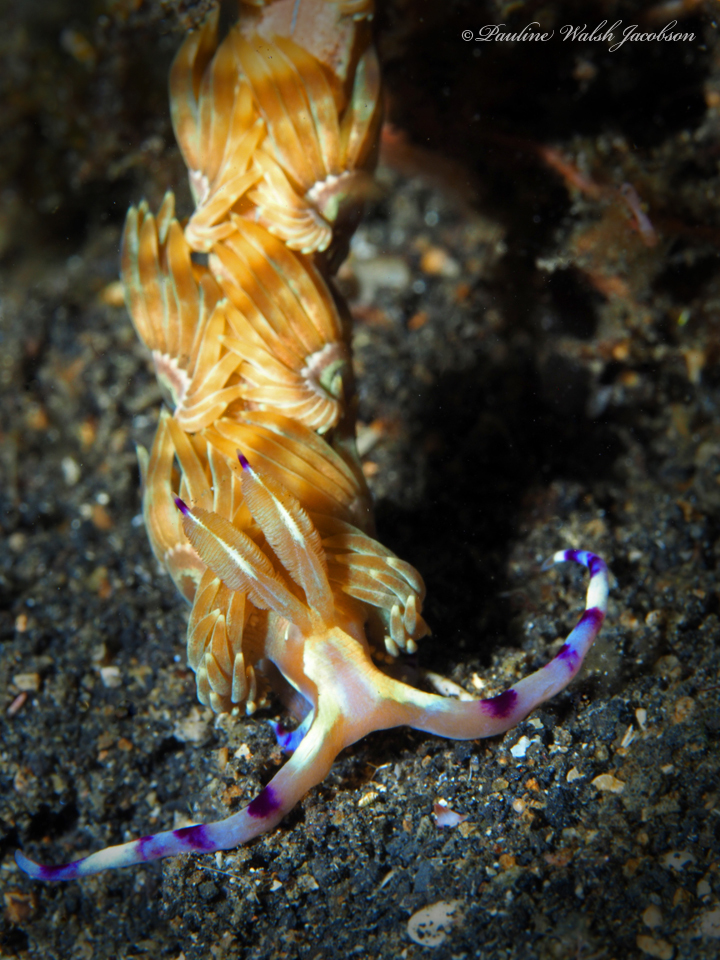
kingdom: Animalia
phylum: Mollusca
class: Gastropoda
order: Nudibranchia
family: Facelinidae
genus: Pteraeolidia
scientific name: Pteraeolidia semperi
